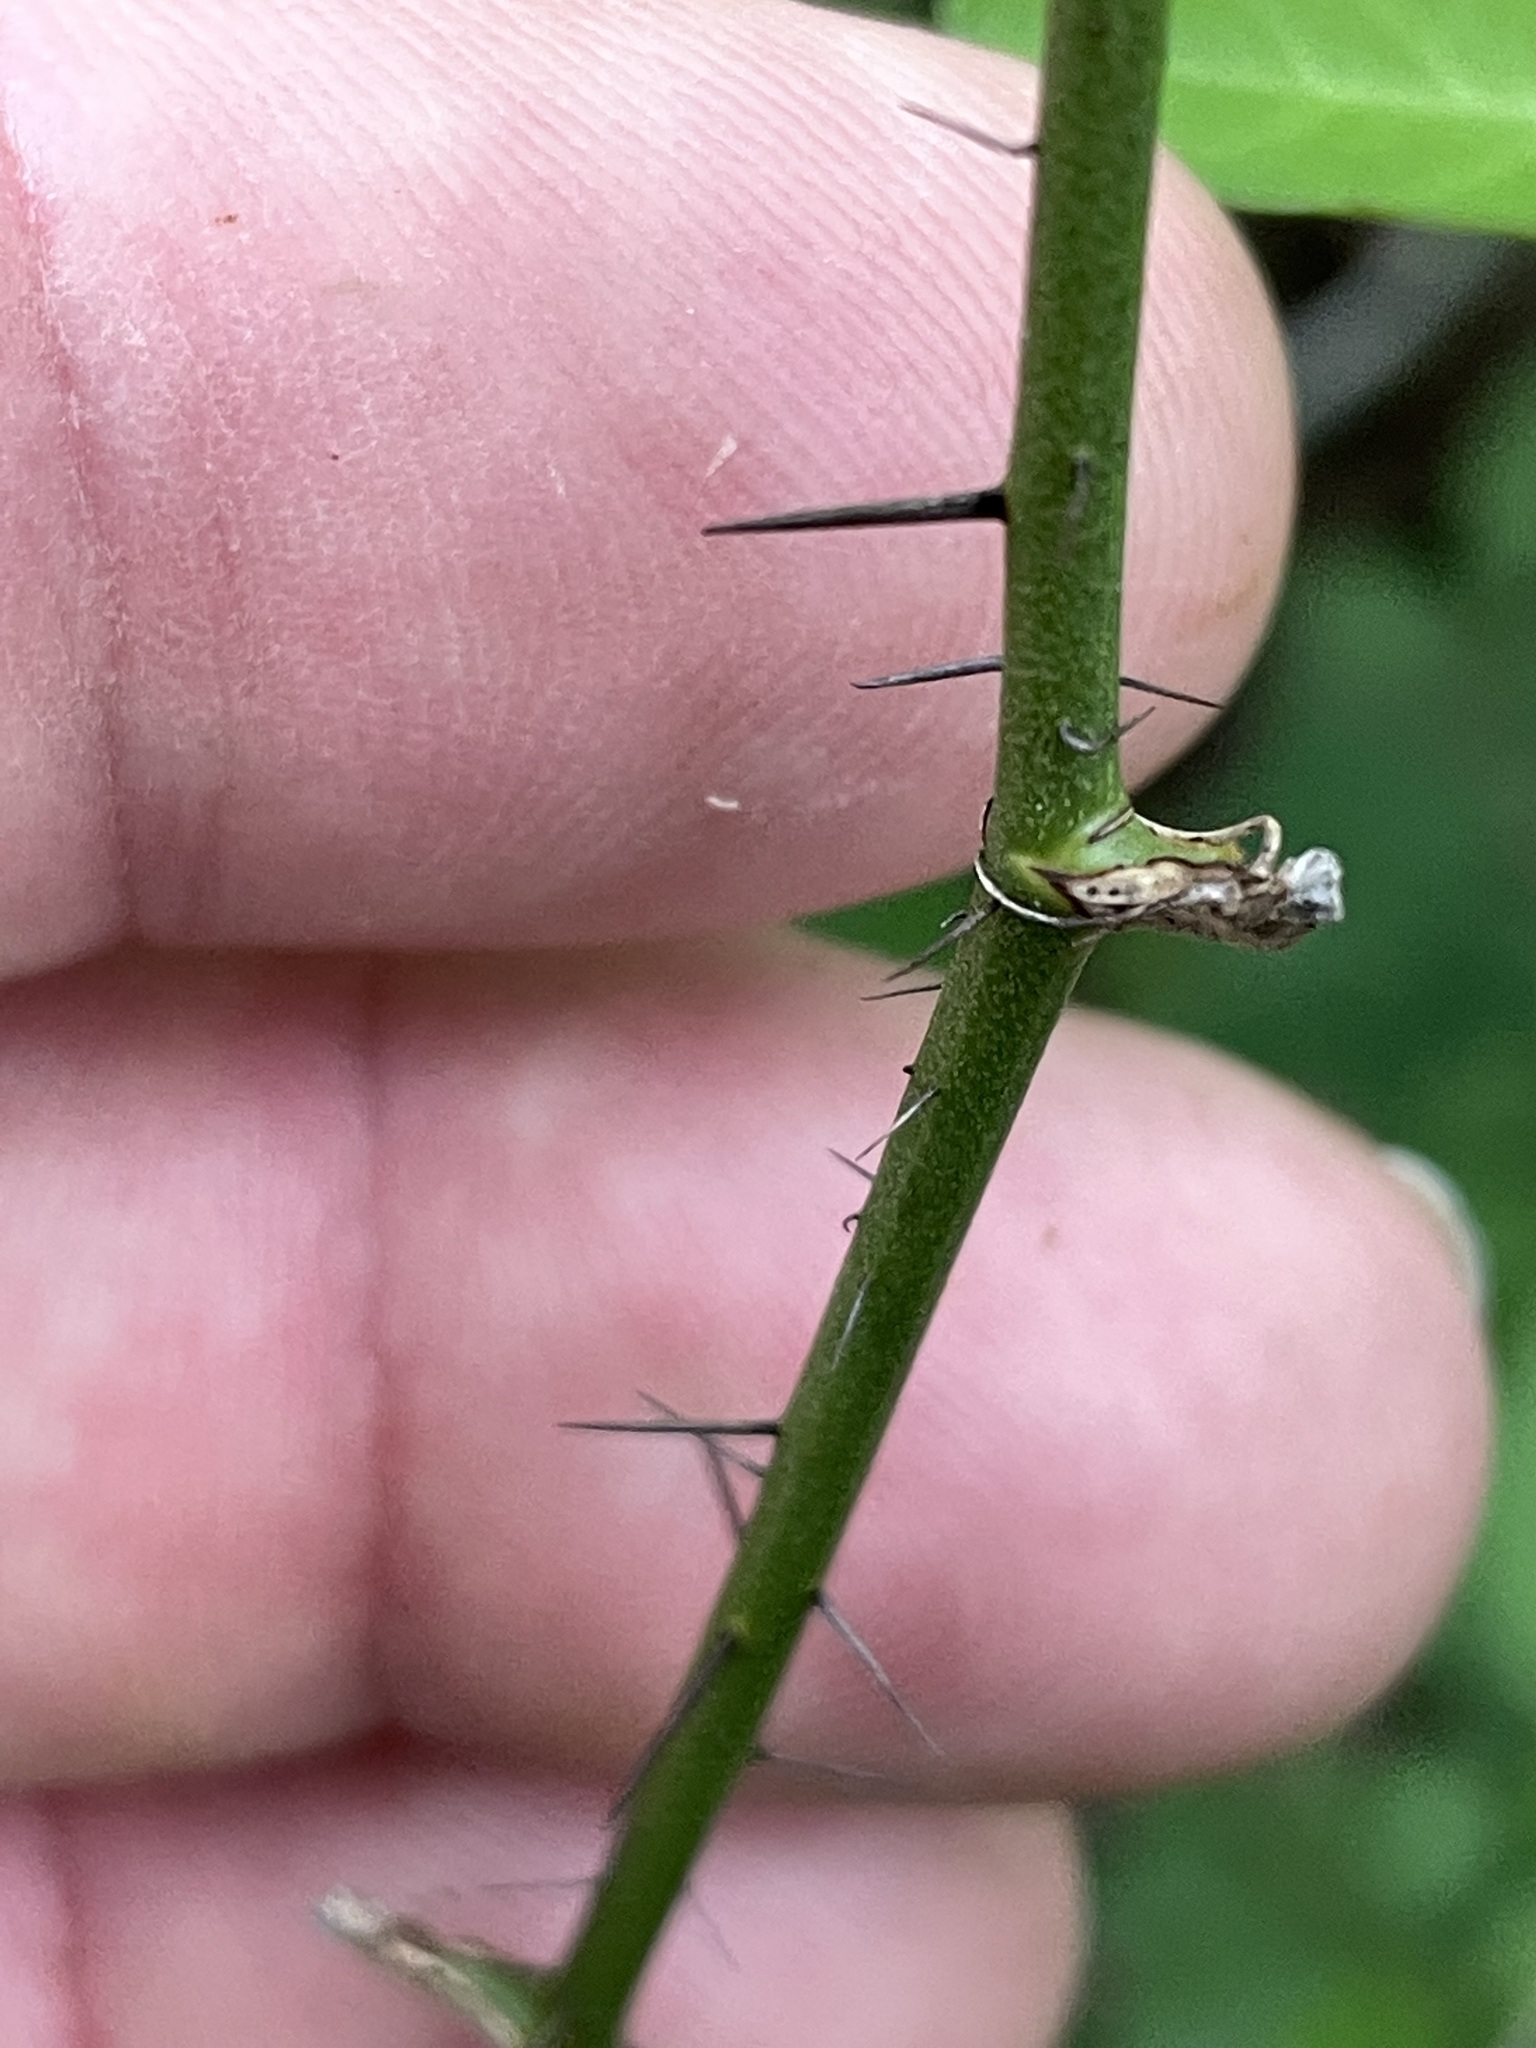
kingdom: Plantae
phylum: Tracheophyta
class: Liliopsida
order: Liliales
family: Smilacaceae
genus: Smilax
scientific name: Smilax tamnoides
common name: Hellfetter
